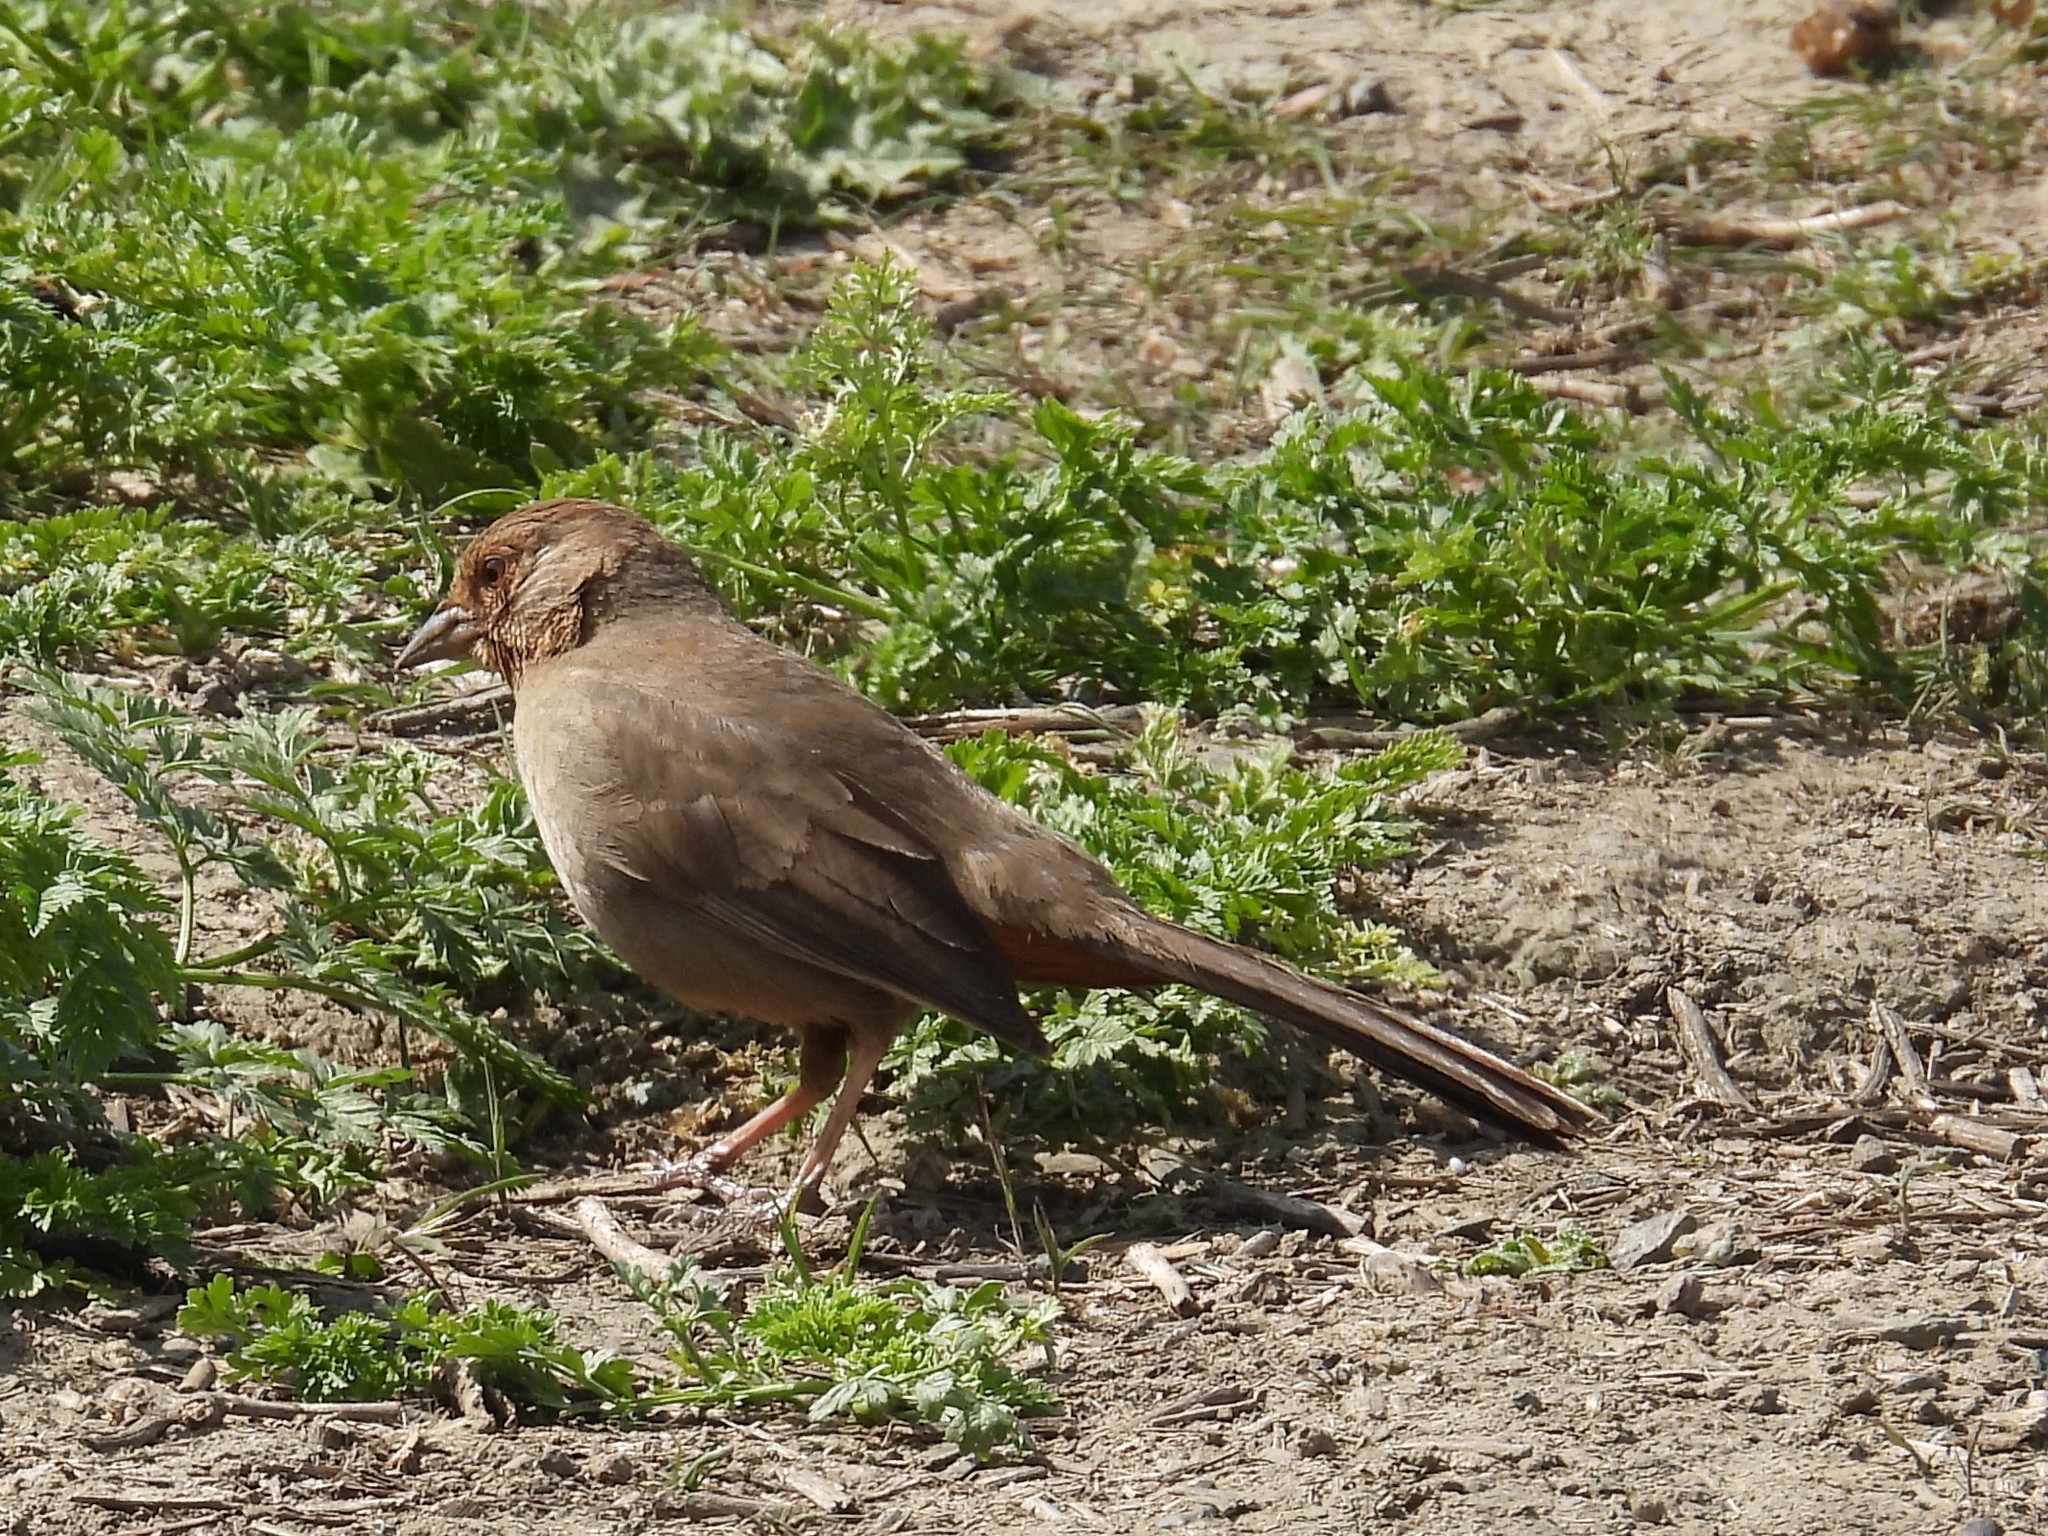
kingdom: Animalia
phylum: Chordata
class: Aves
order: Passeriformes
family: Passerellidae
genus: Melozone
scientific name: Melozone crissalis
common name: California towhee
